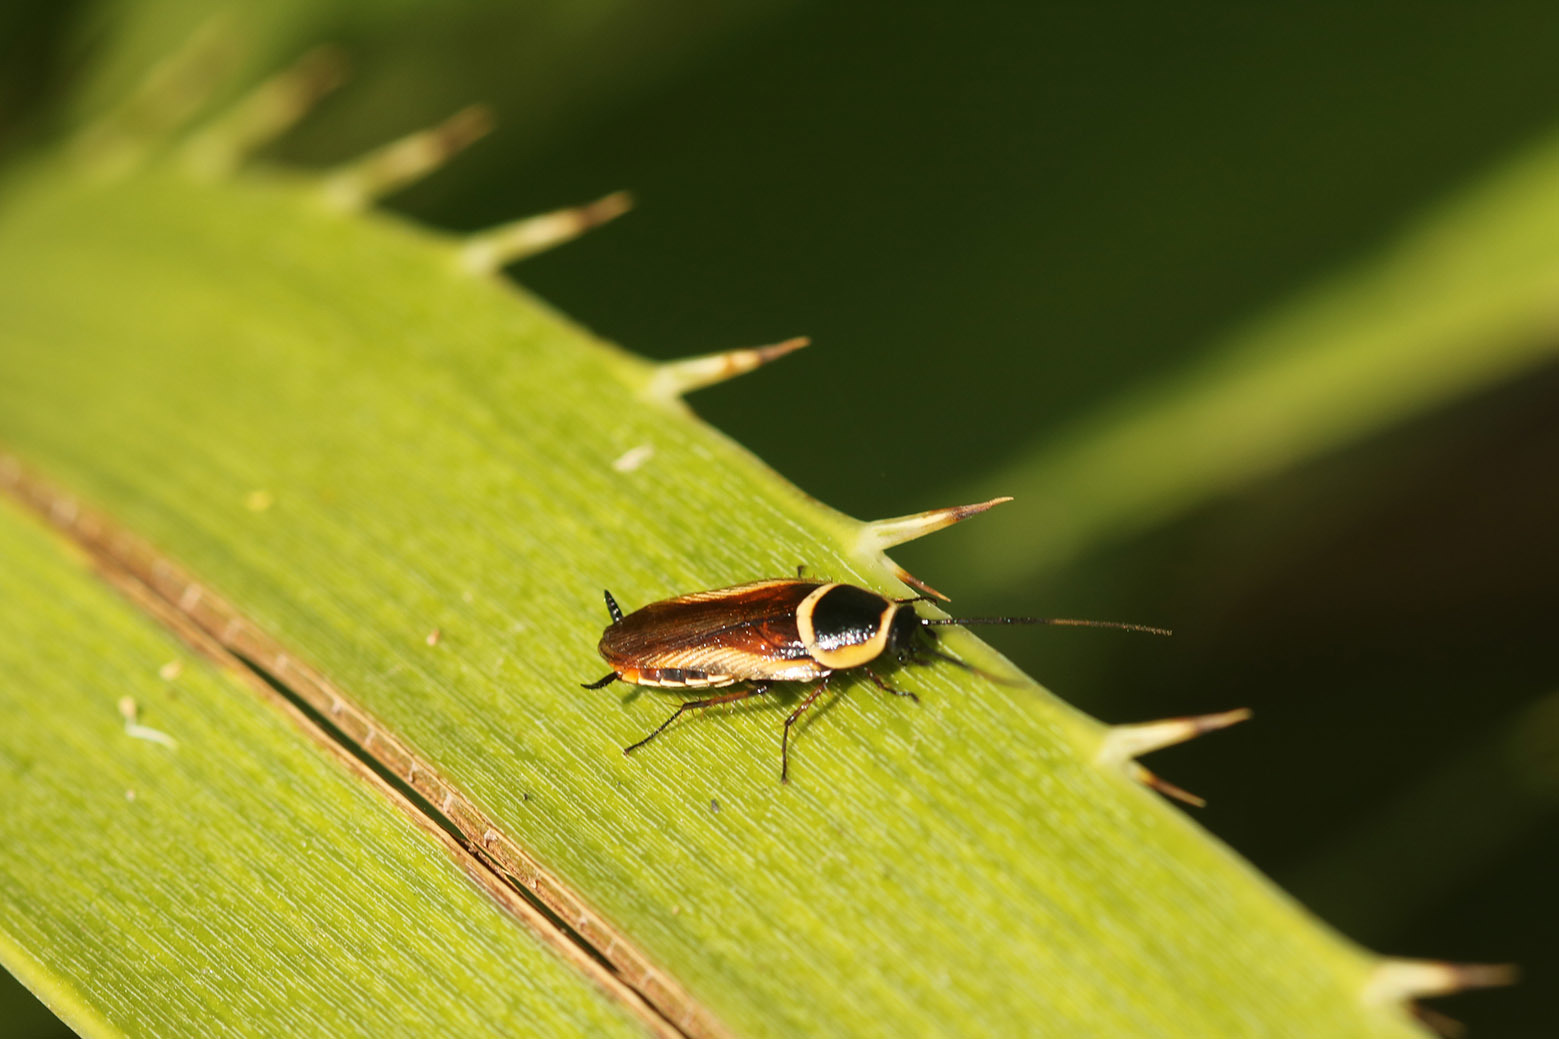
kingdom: Animalia
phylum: Arthropoda
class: Insecta
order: Blattodea
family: Ectobiidae
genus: Pseudomops
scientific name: Pseudomops neglectus
